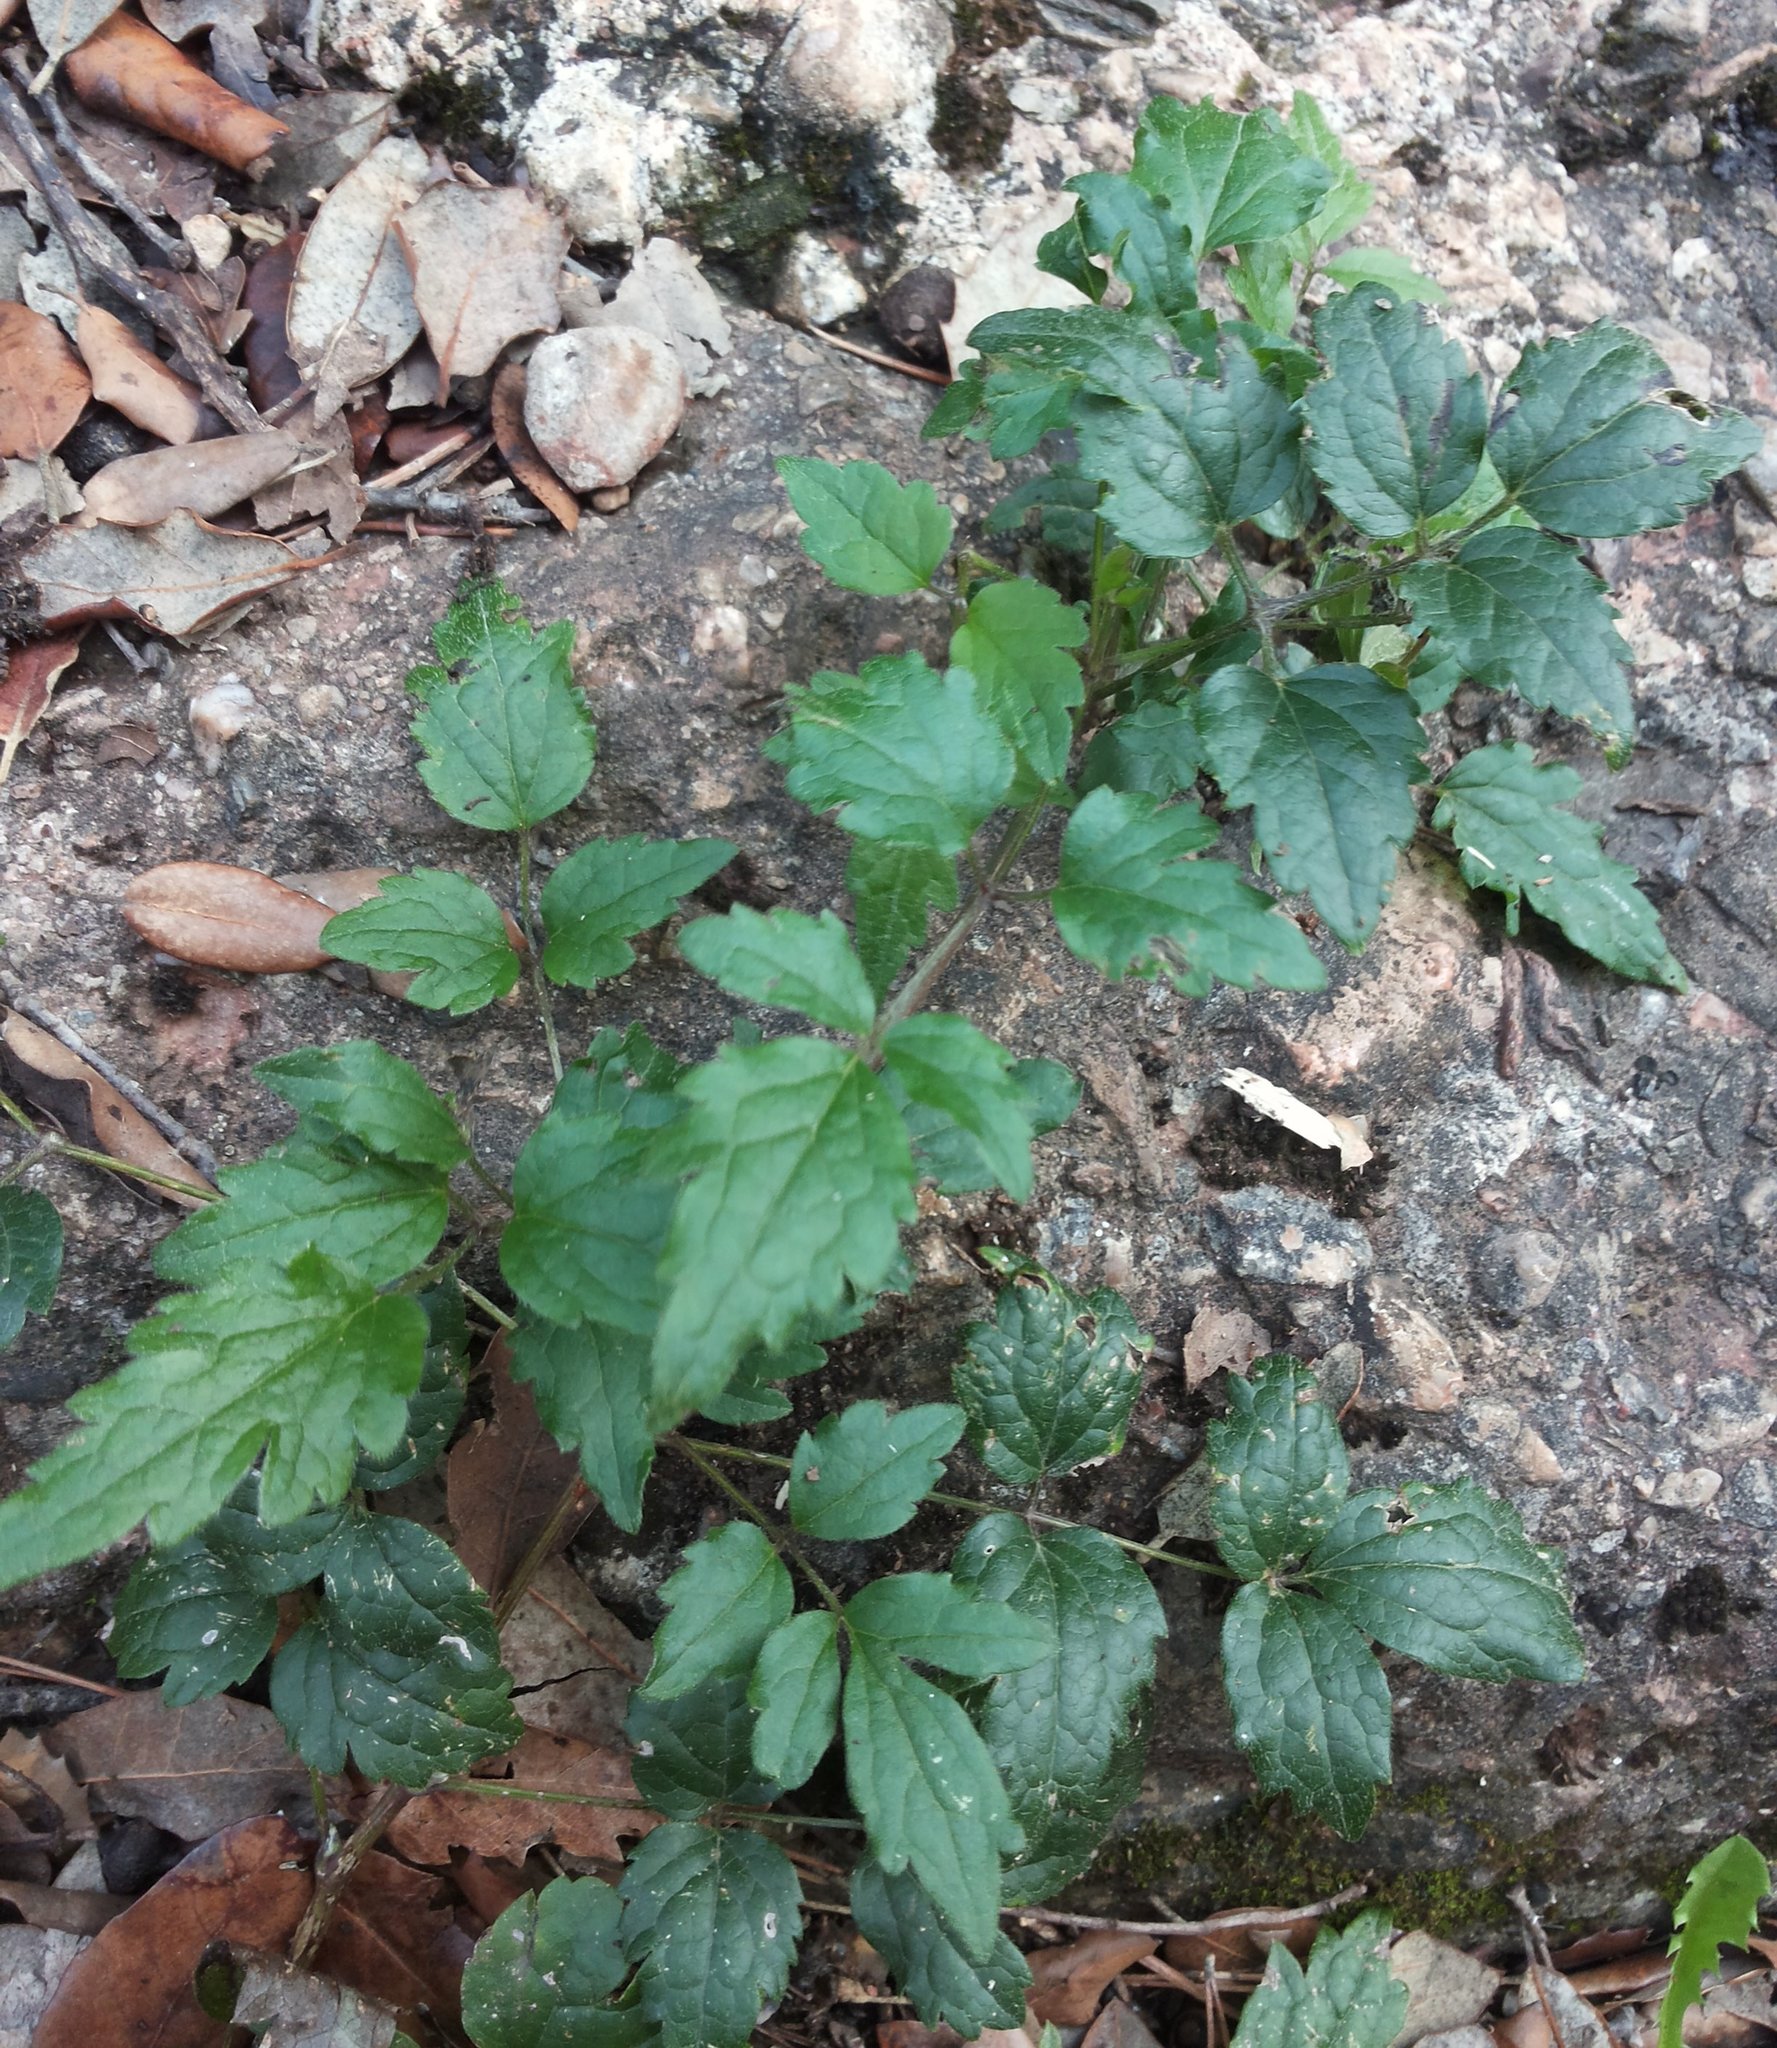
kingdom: Plantae
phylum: Tracheophyta
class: Magnoliopsida
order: Ranunculales
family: Ranunculaceae
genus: Clematis
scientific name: Clematis vitalba
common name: Evergreen clematis
